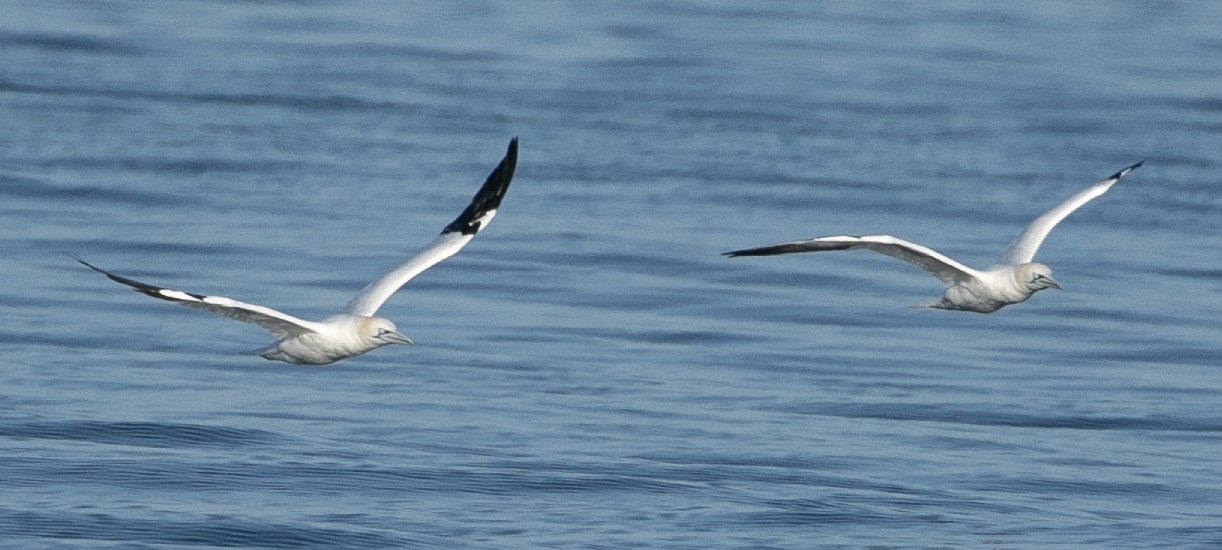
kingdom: Animalia
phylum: Chordata
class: Aves
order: Suliformes
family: Sulidae
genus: Morus
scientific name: Morus bassanus
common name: Northern gannet
